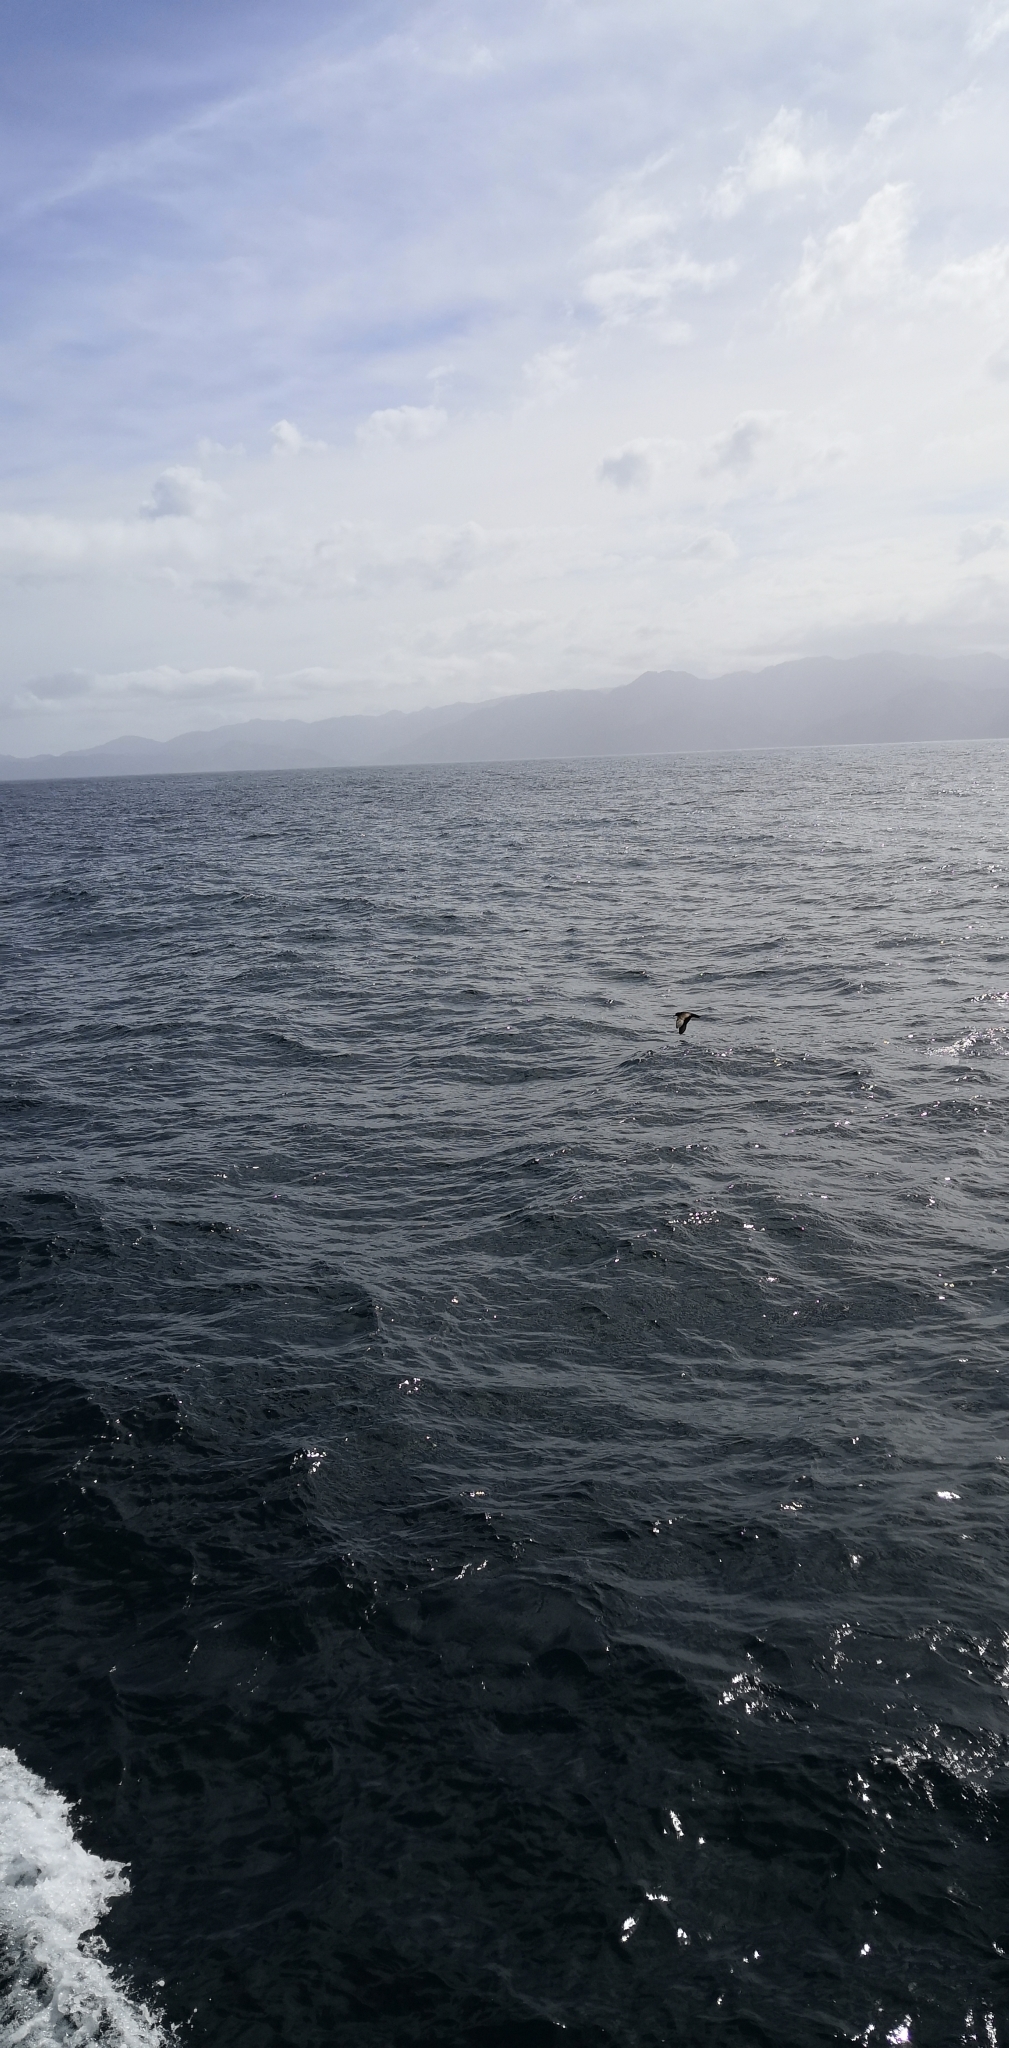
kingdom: Animalia
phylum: Chordata
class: Aves
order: Procellariiformes
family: Procellariidae
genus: Procellaria
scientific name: Procellaria westlandica
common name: Westland petrel
